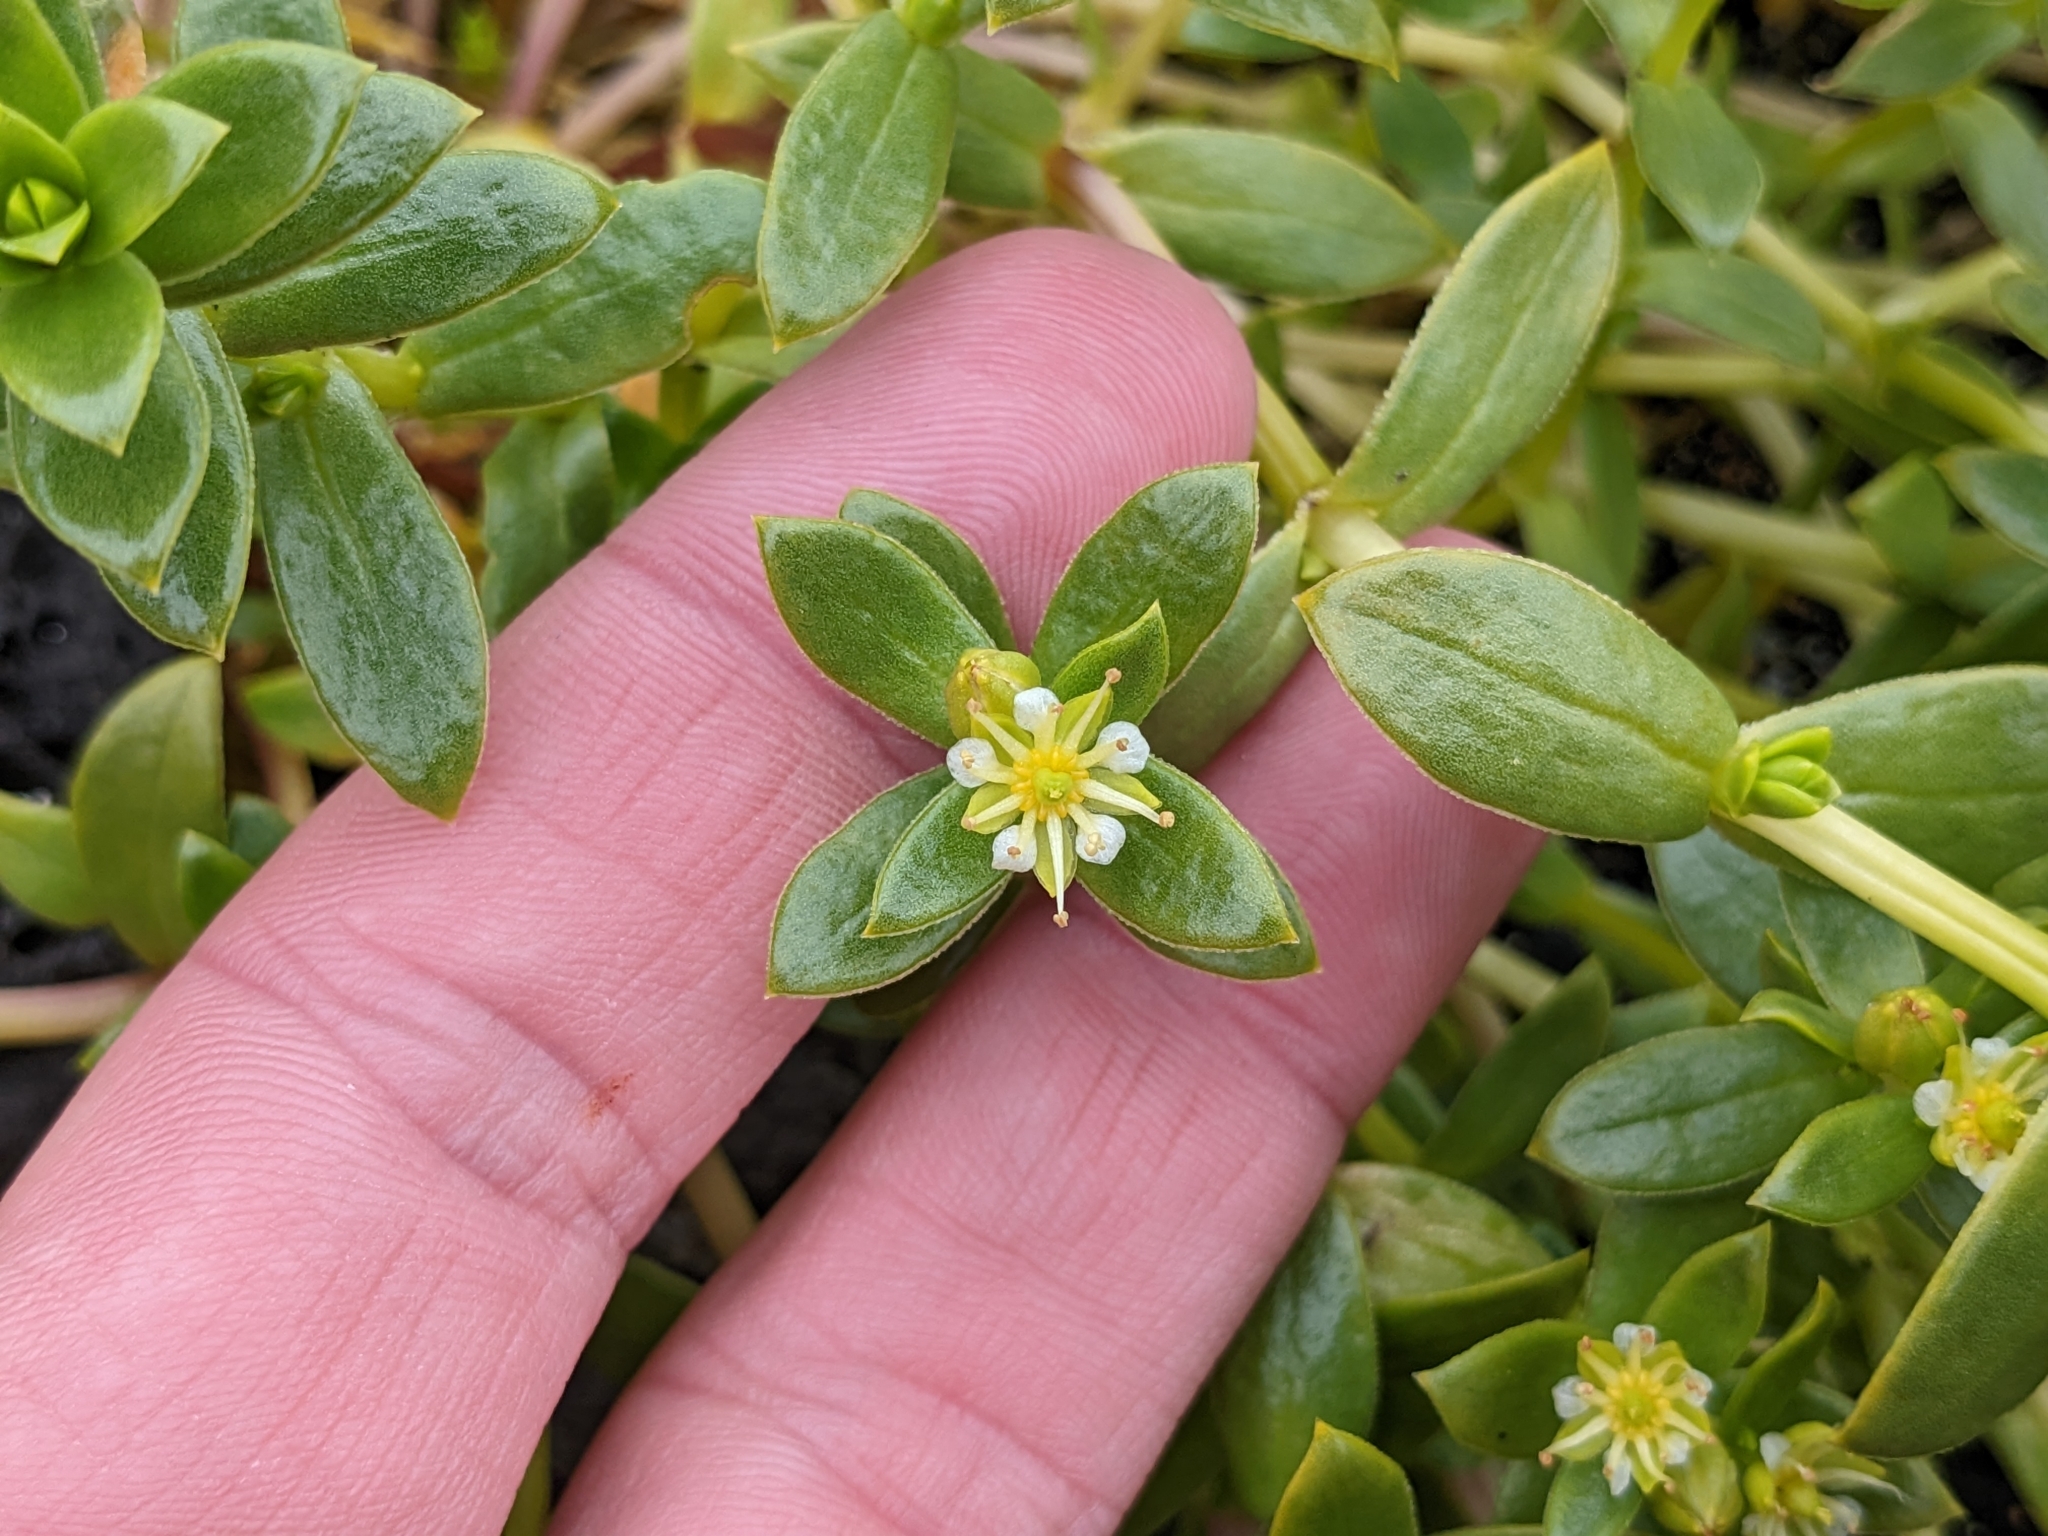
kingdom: Plantae
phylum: Tracheophyta
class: Magnoliopsida
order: Caryophyllales
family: Caryophyllaceae
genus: Honckenya
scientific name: Honckenya peploides
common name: Sea sandwort
